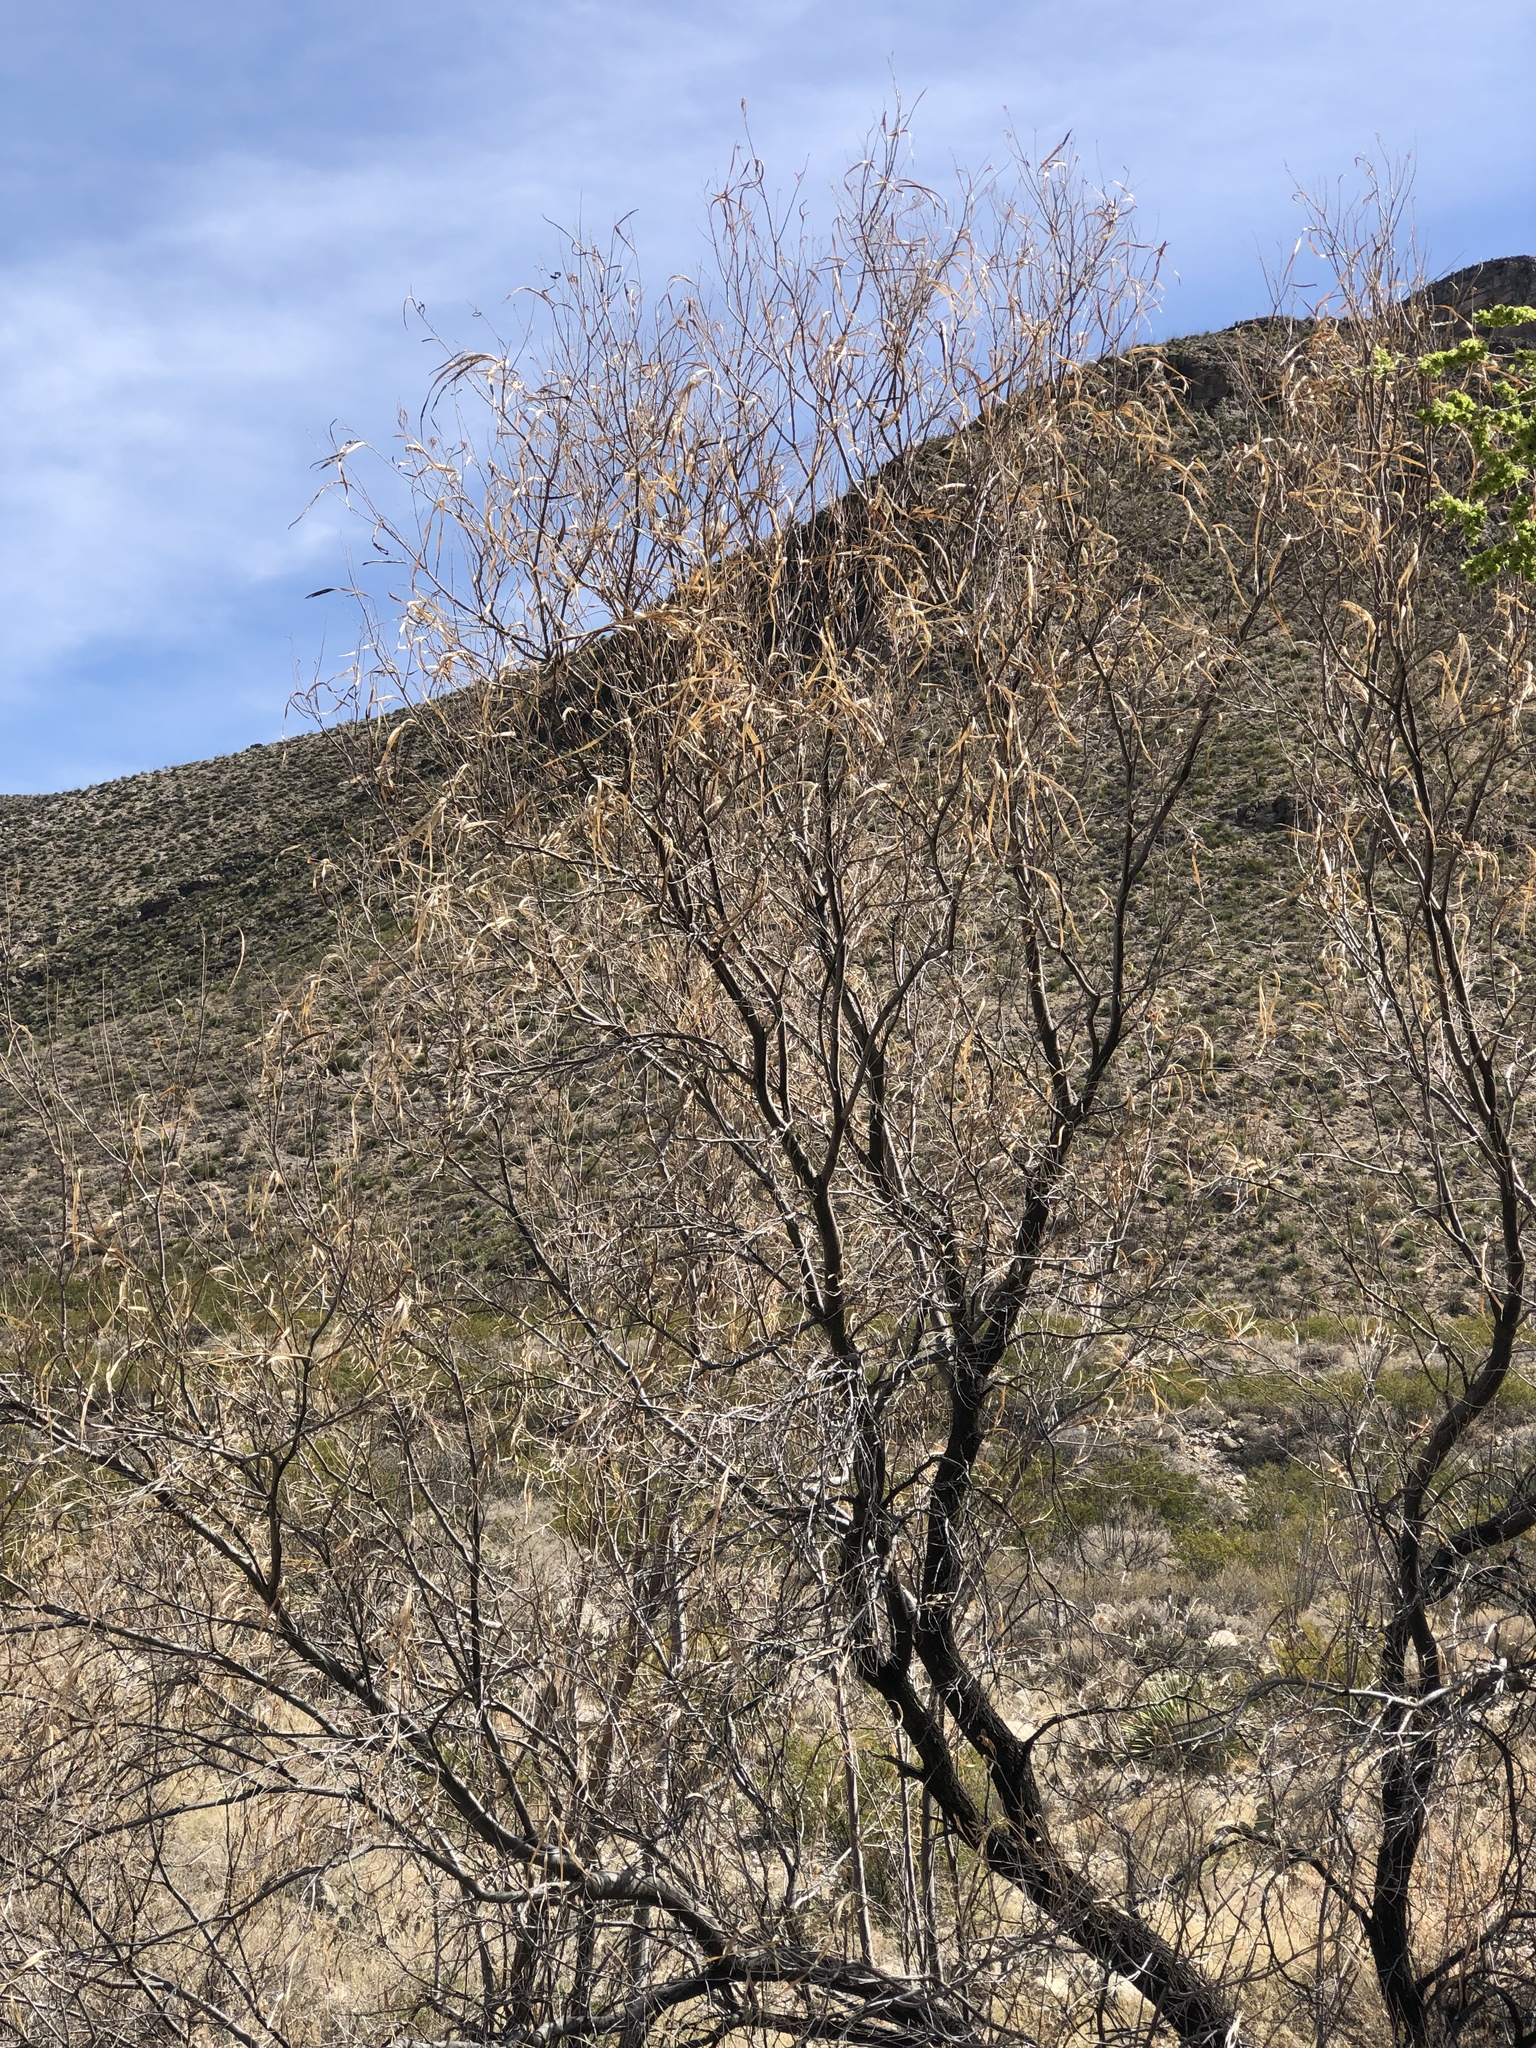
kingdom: Plantae
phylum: Tracheophyta
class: Magnoliopsida
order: Lamiales
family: Bignoniaceae
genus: Chilopsis
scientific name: Chilopsis linearis
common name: Desert-willow
